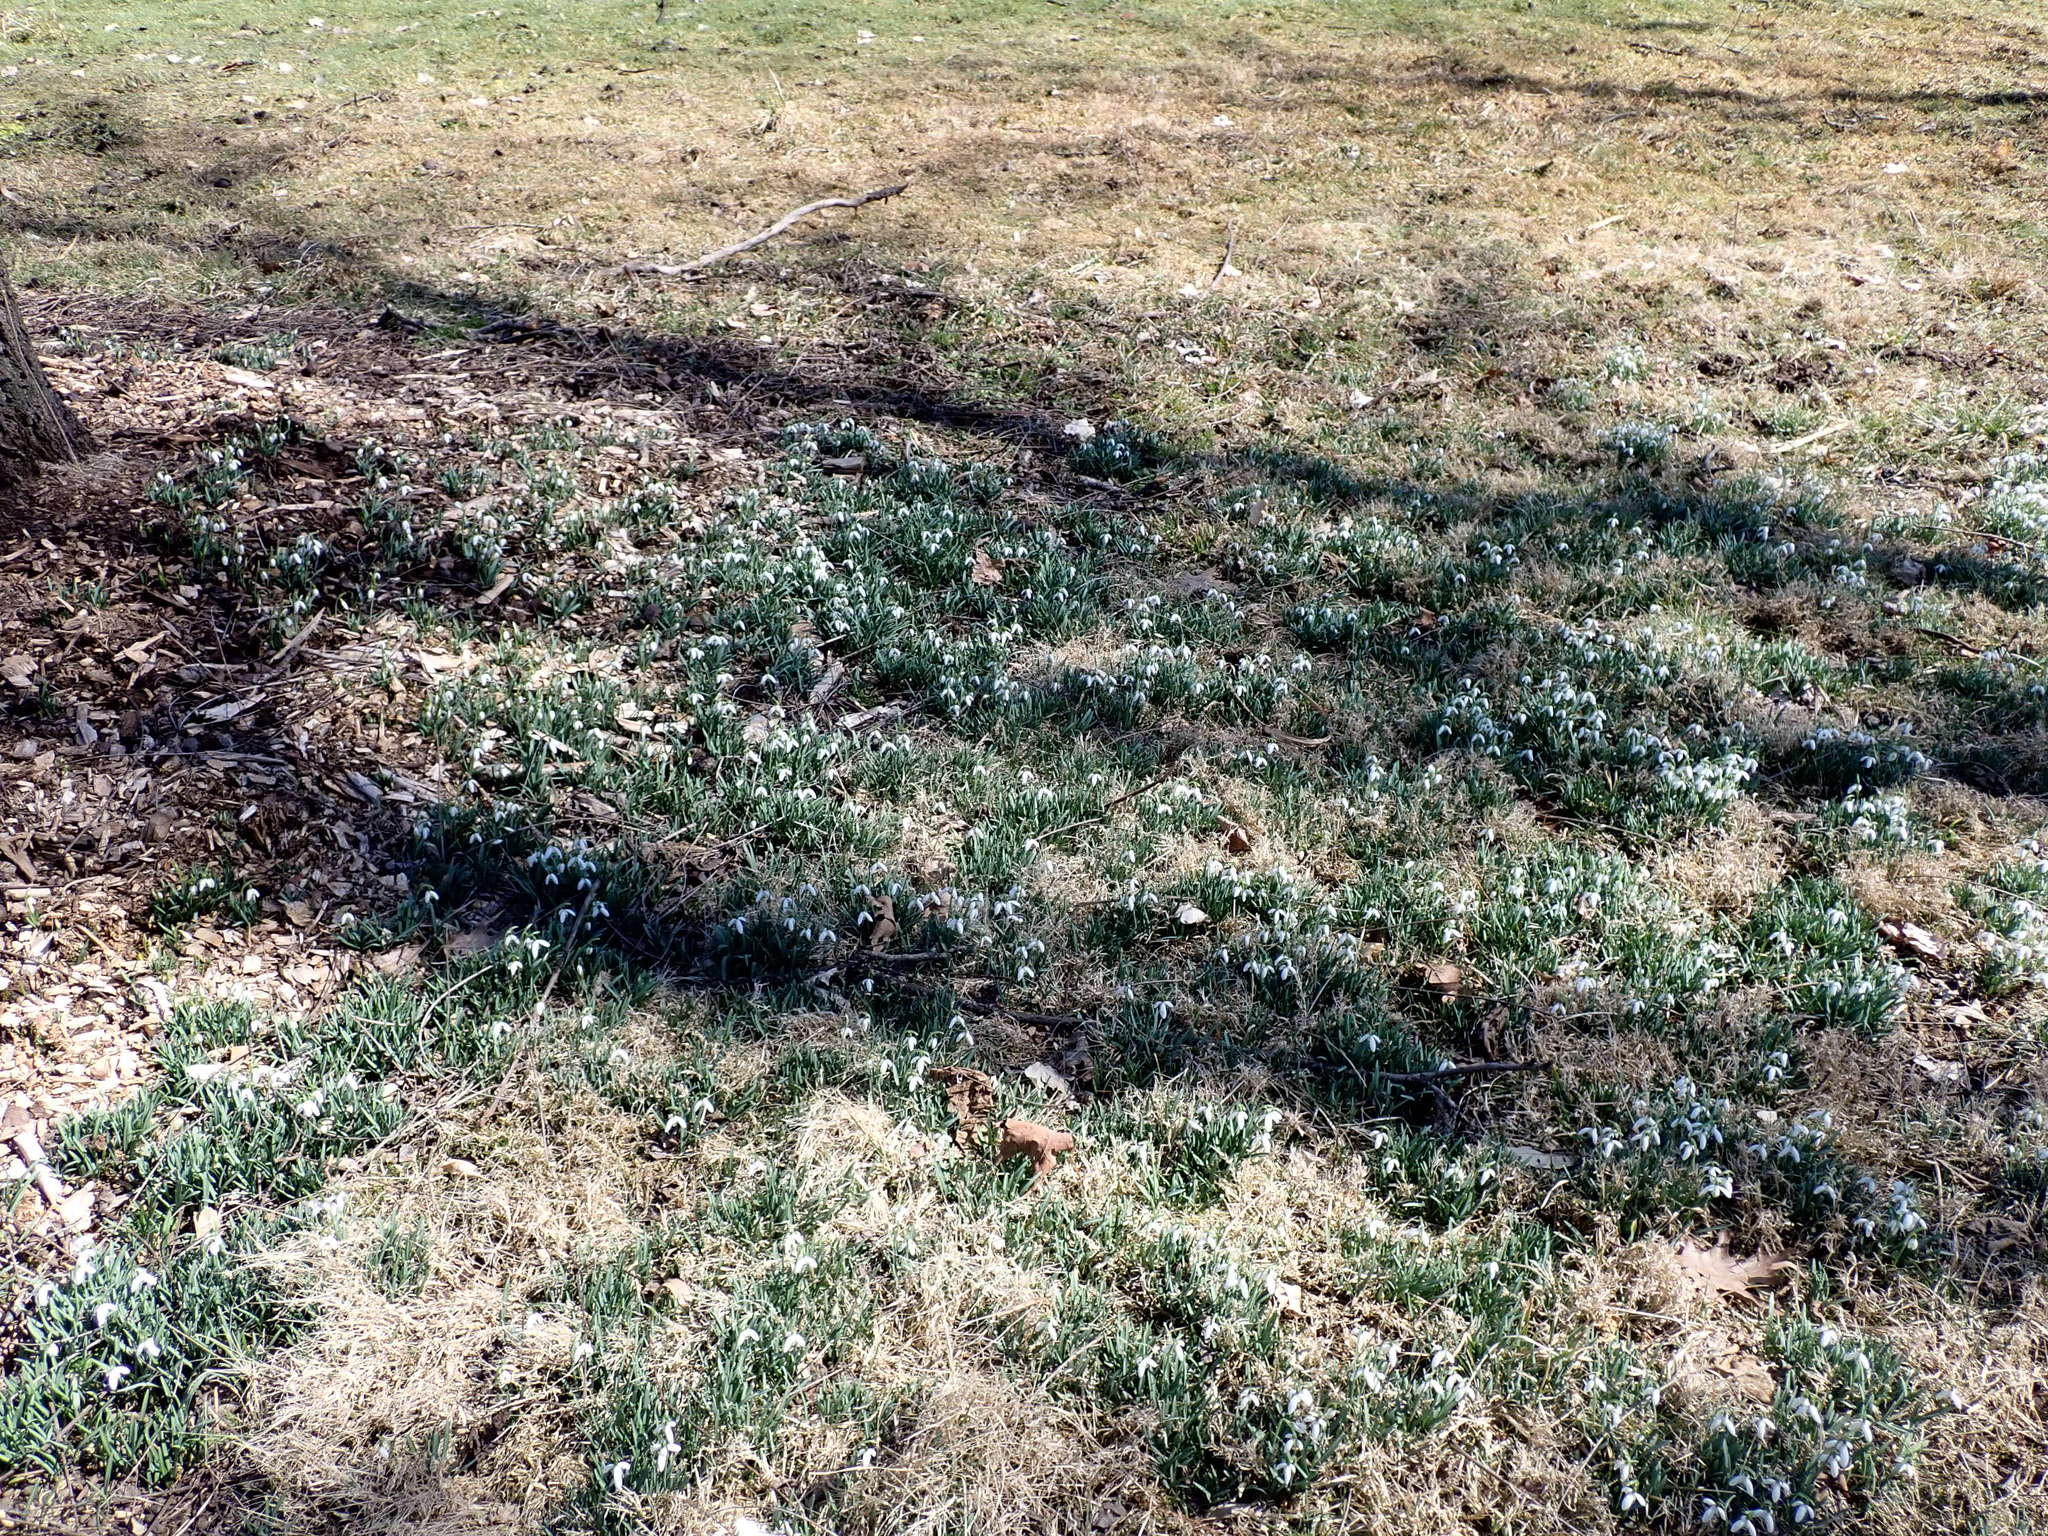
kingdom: Plantae
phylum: Tracheophyta
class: Liliopsida
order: Asparagales
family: Amaryllidaceae
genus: Galanthus
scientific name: Galanthus nivalis
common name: Snowdrop
